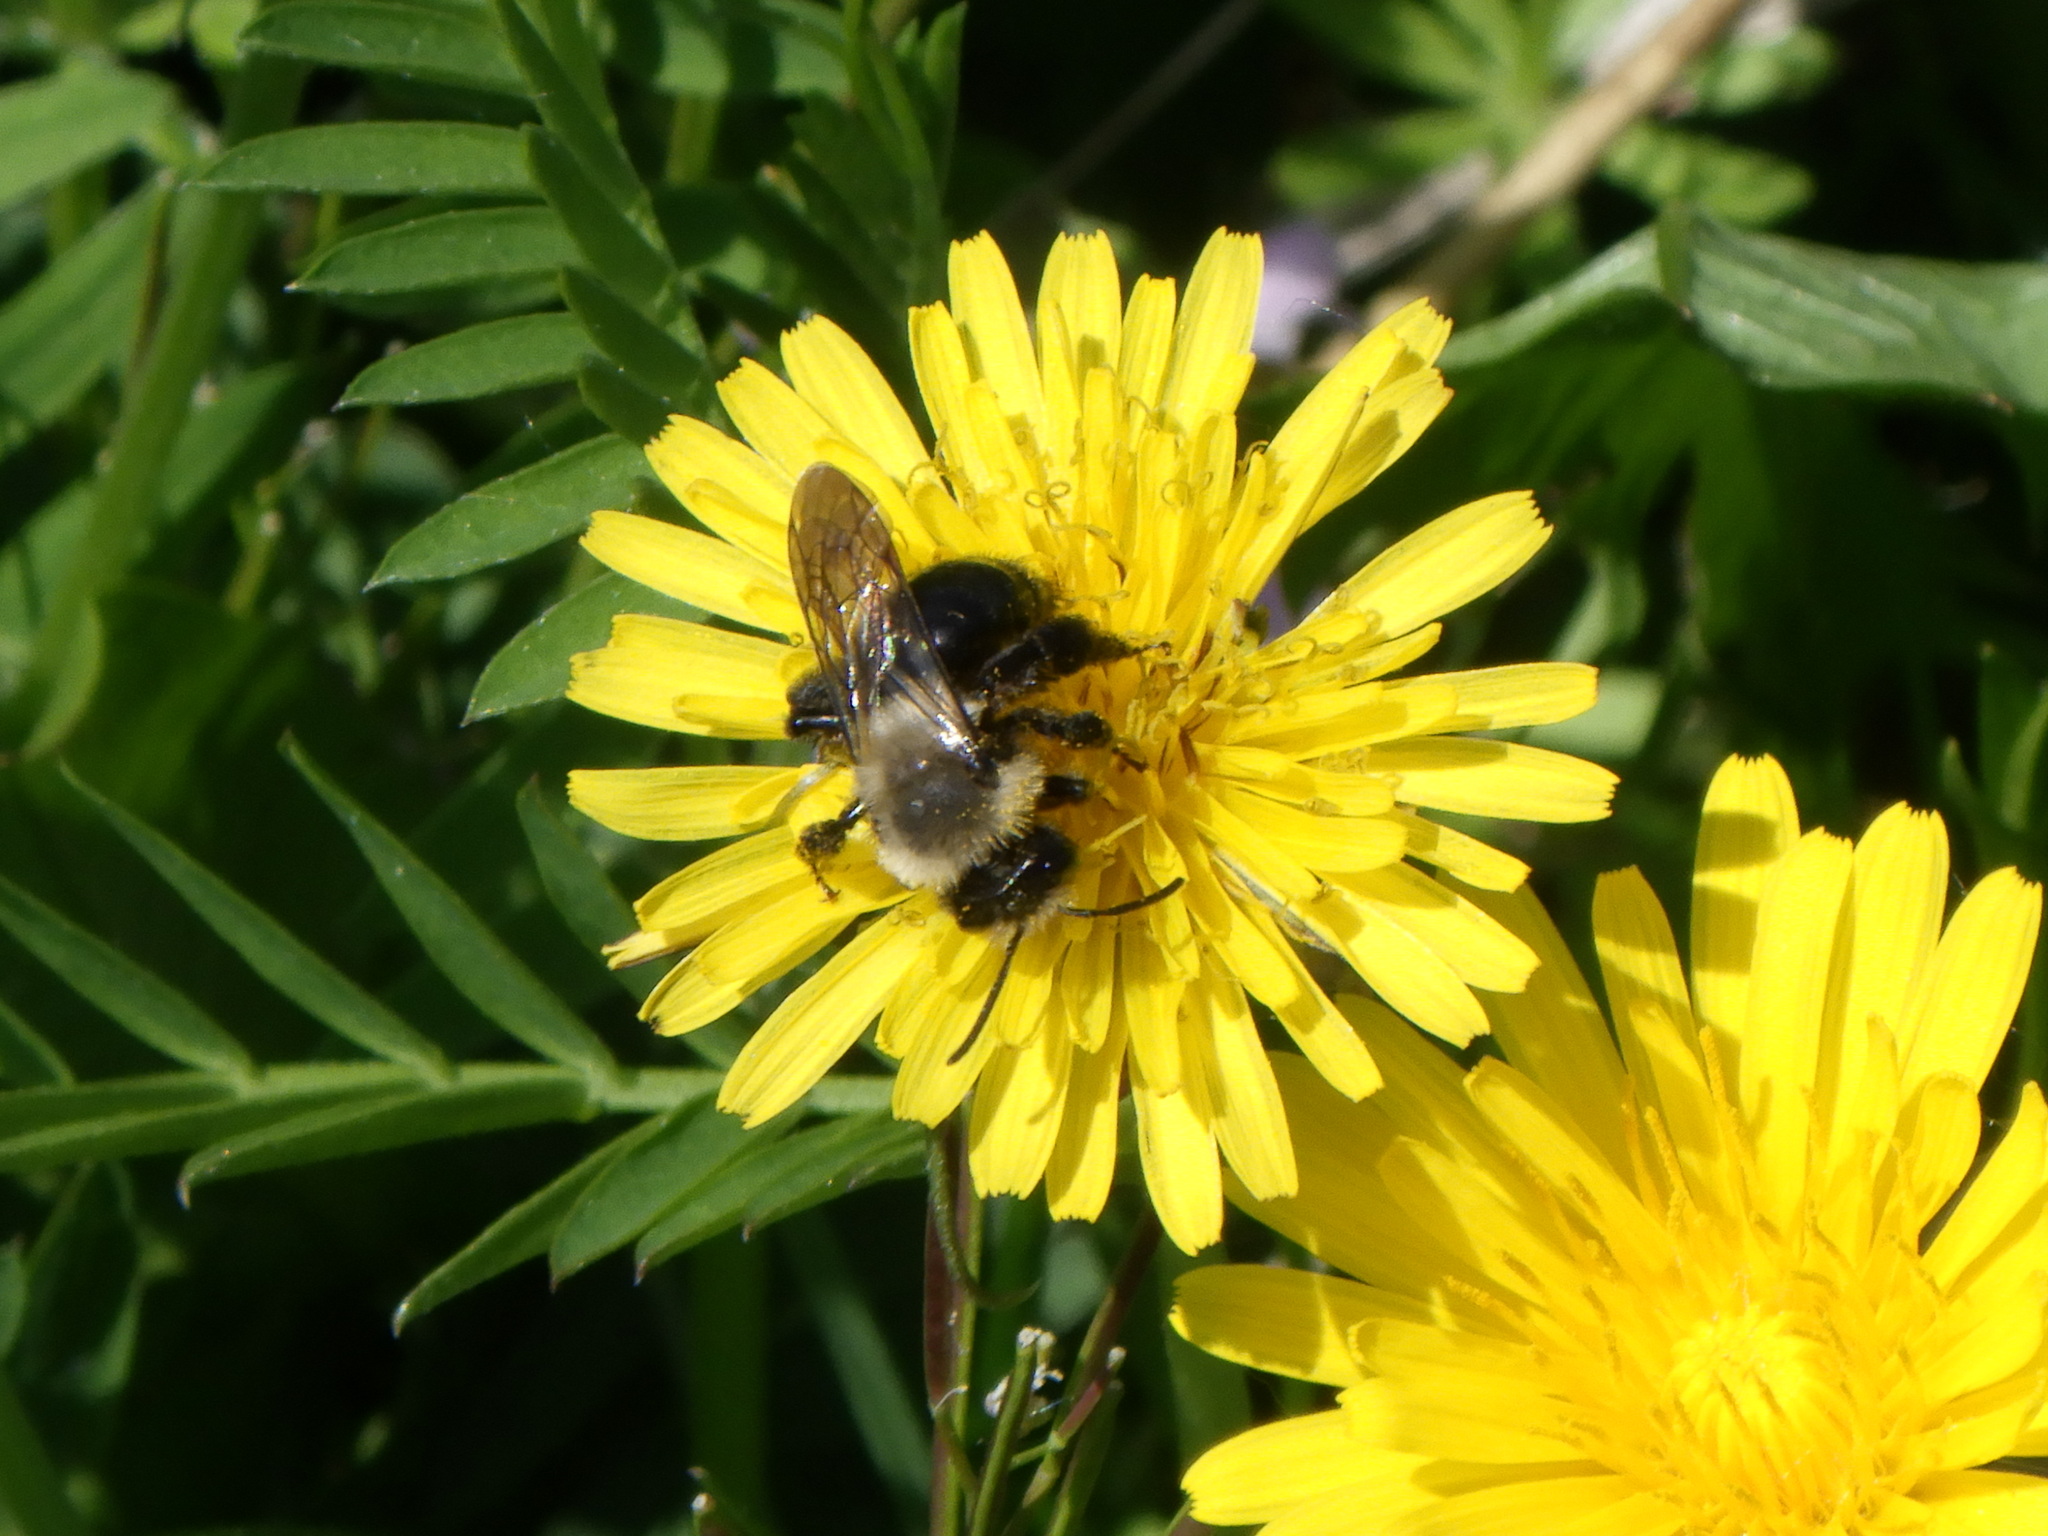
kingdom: Animalia
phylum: Arthropoda
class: Insecta
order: Hymenoptera
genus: Melandrena
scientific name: Melandrena
